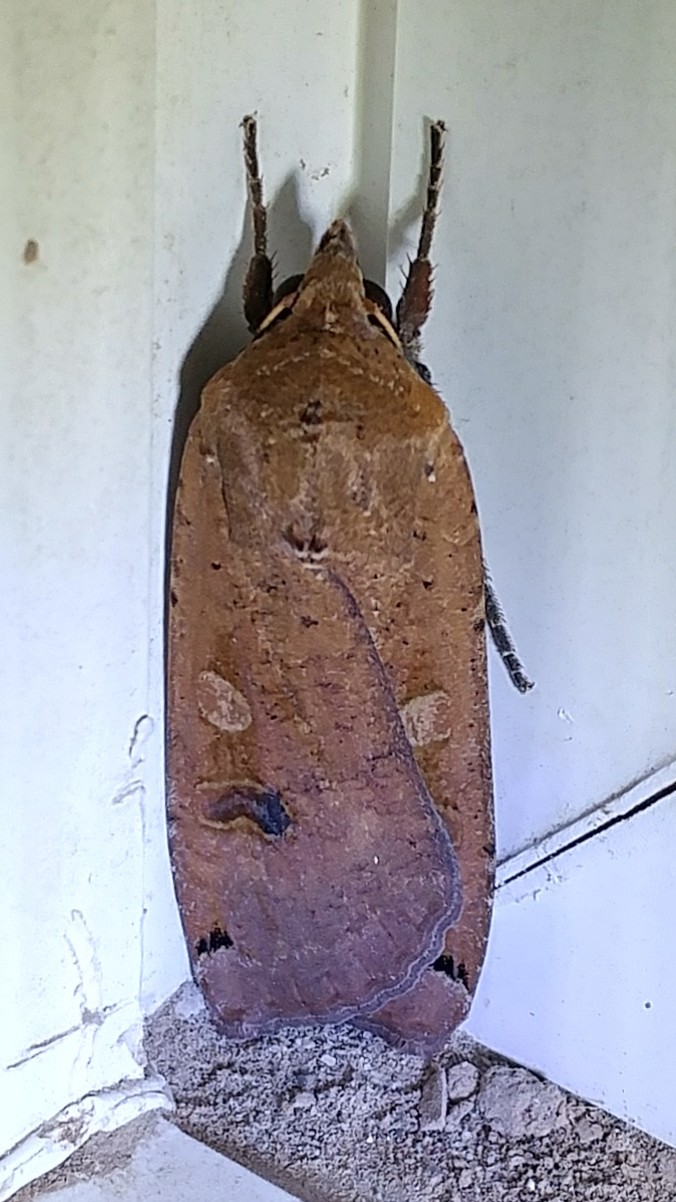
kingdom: Animalia
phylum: Arthropoda
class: Insecta
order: Lepidoptera
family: Noctuidae
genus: Noctua
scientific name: Noctua pronuba
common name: Large yellow underwing
